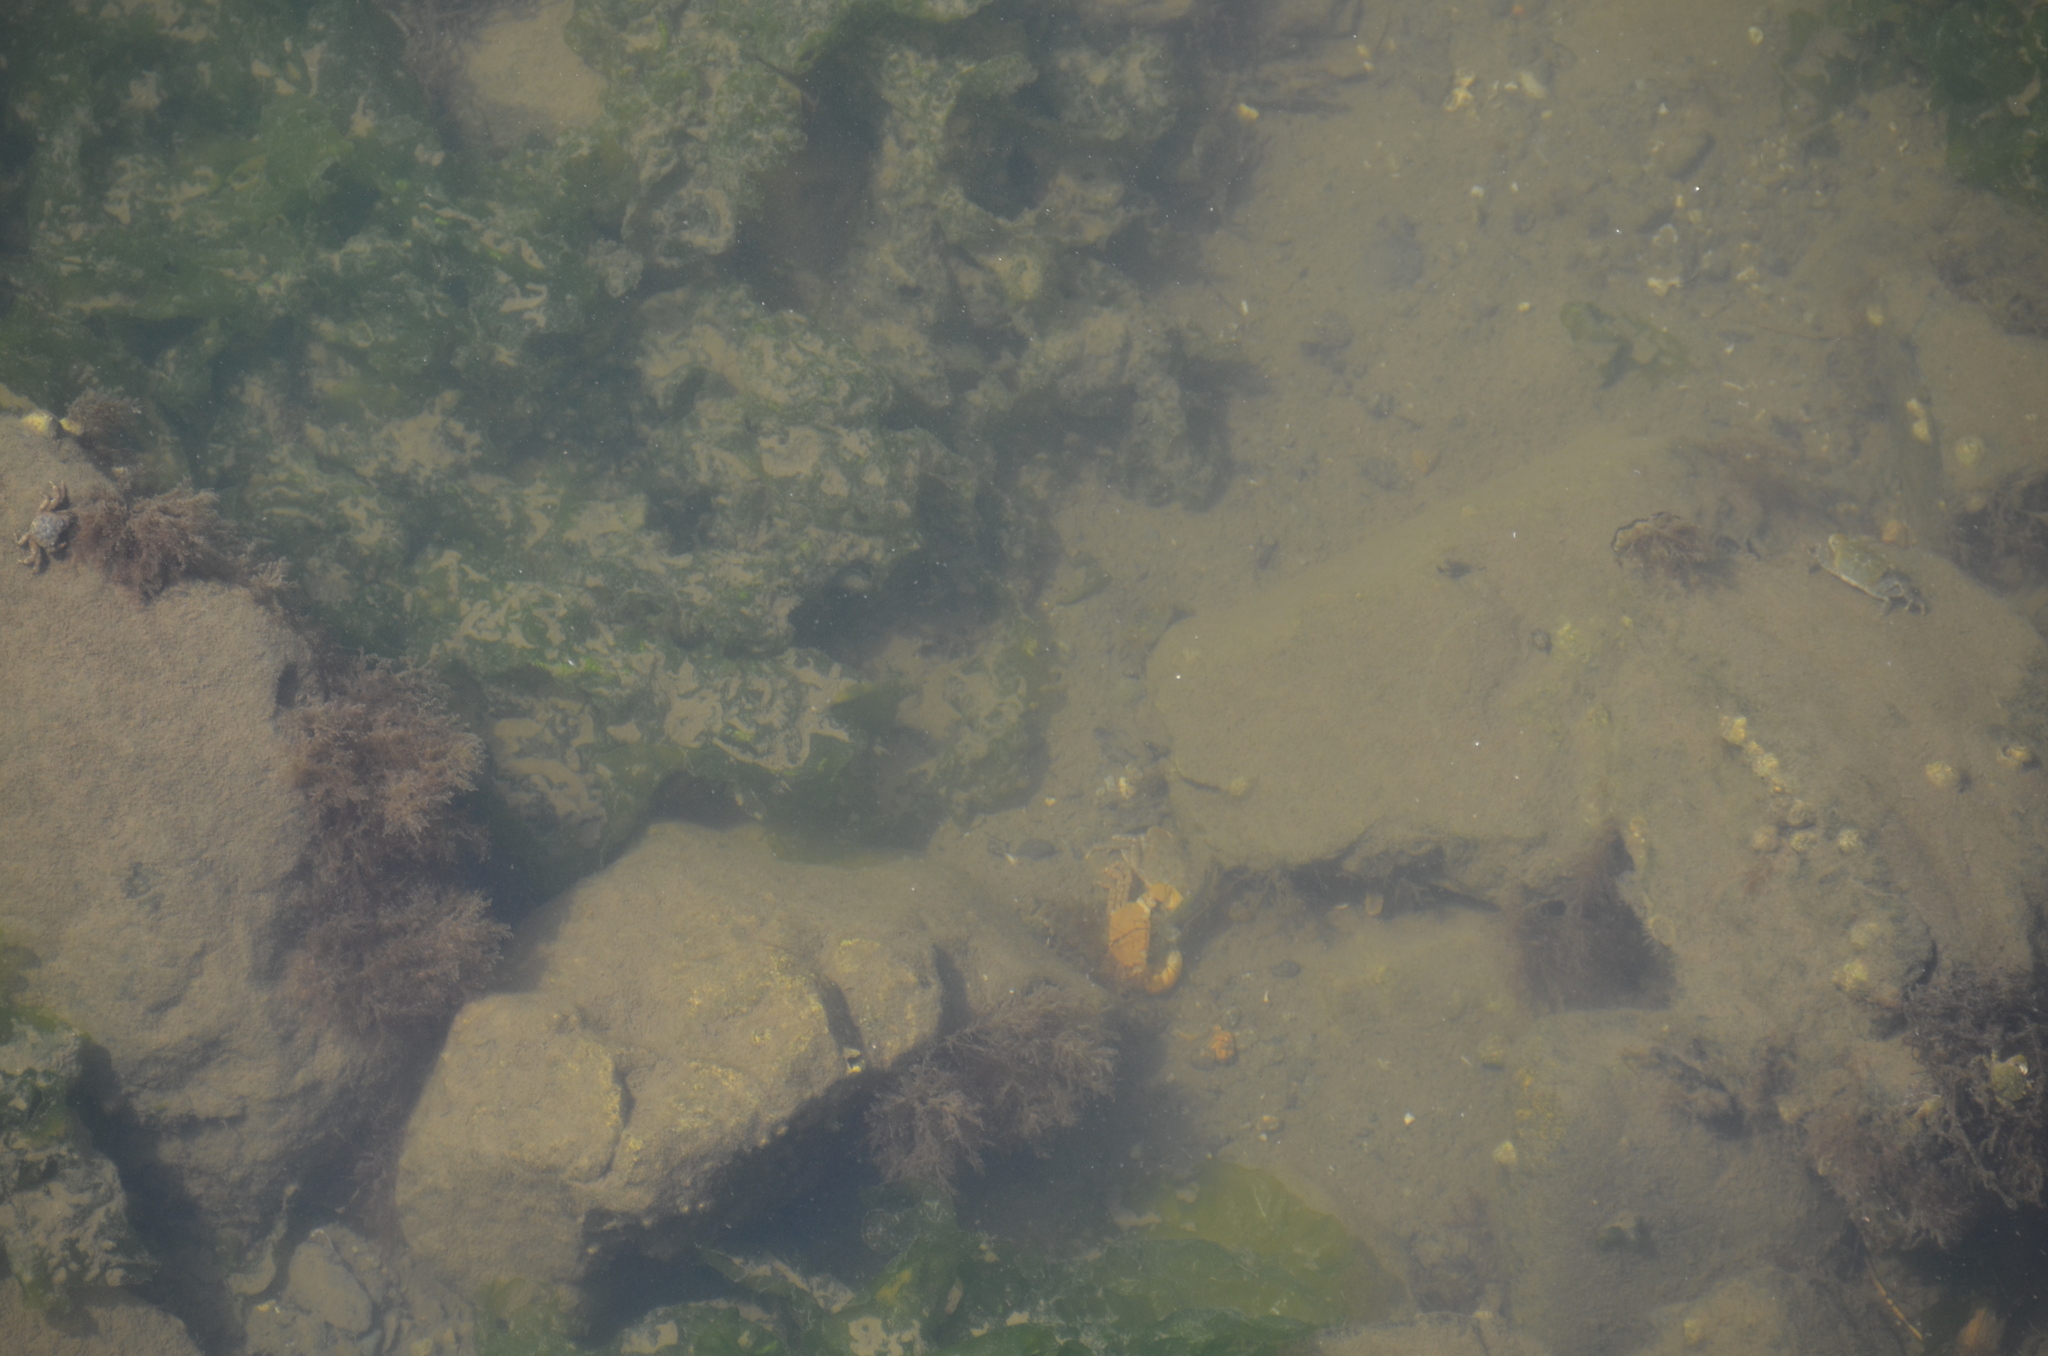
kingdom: Animalia
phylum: Arthropoda
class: Malacostraca
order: Decapoda
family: Varunidae
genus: Hemigrapsus
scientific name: Hemigrapsus oregonensis
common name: Yellow shore crab
